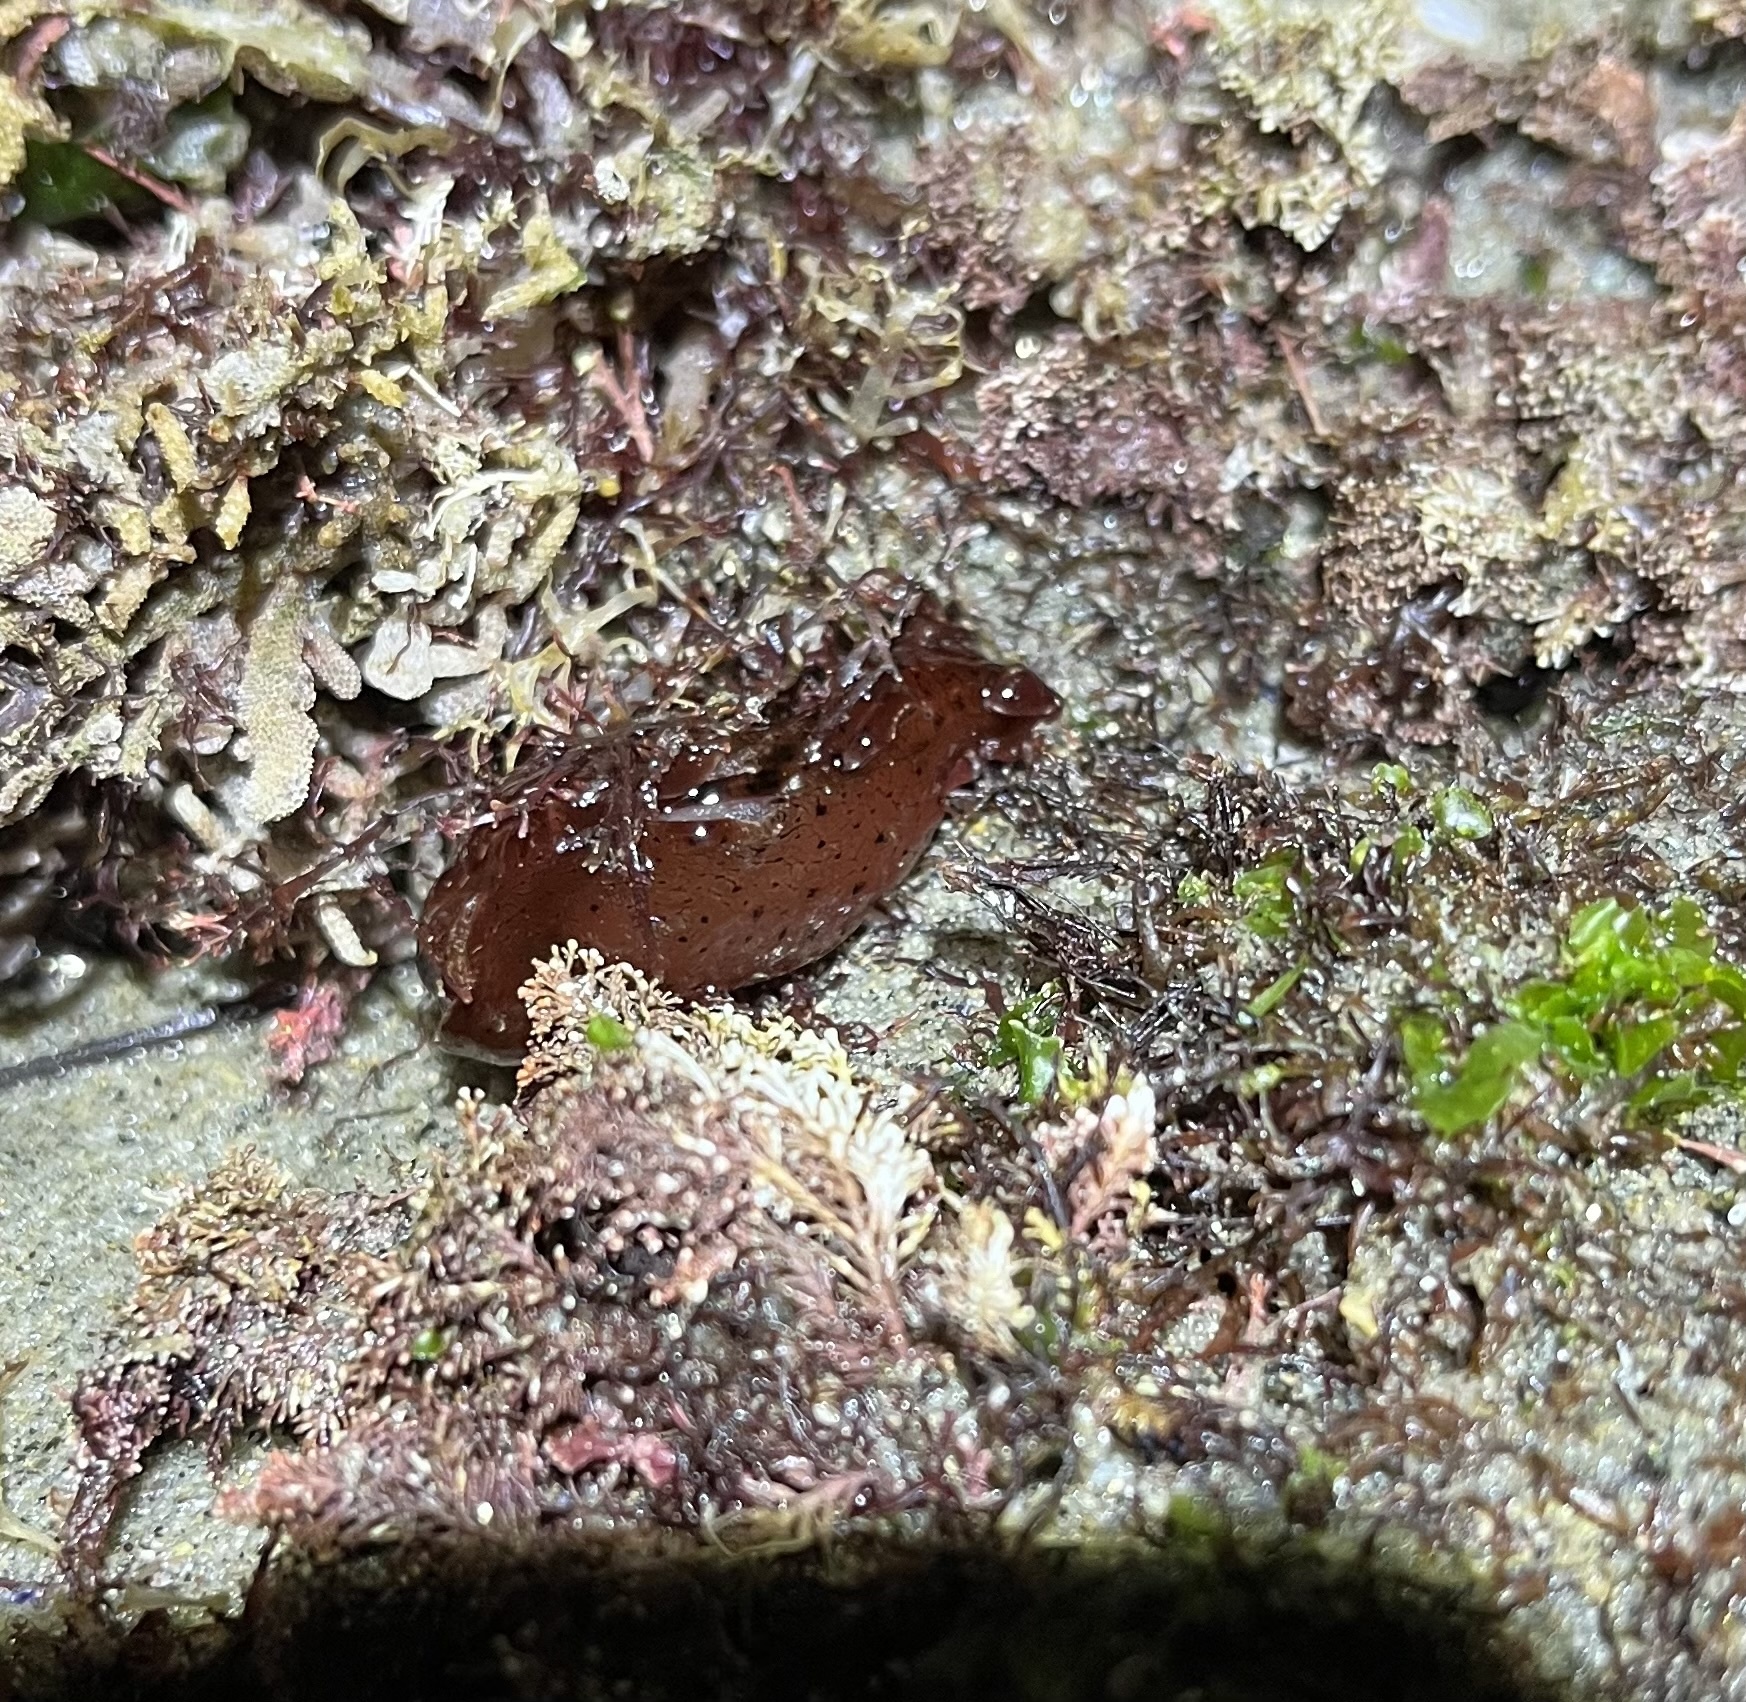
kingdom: Animalia
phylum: Mollusca
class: Gastropoda
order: Aplysiida
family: Aplysiidae
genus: Aplysia
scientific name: Aplysia californica
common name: California seahare
